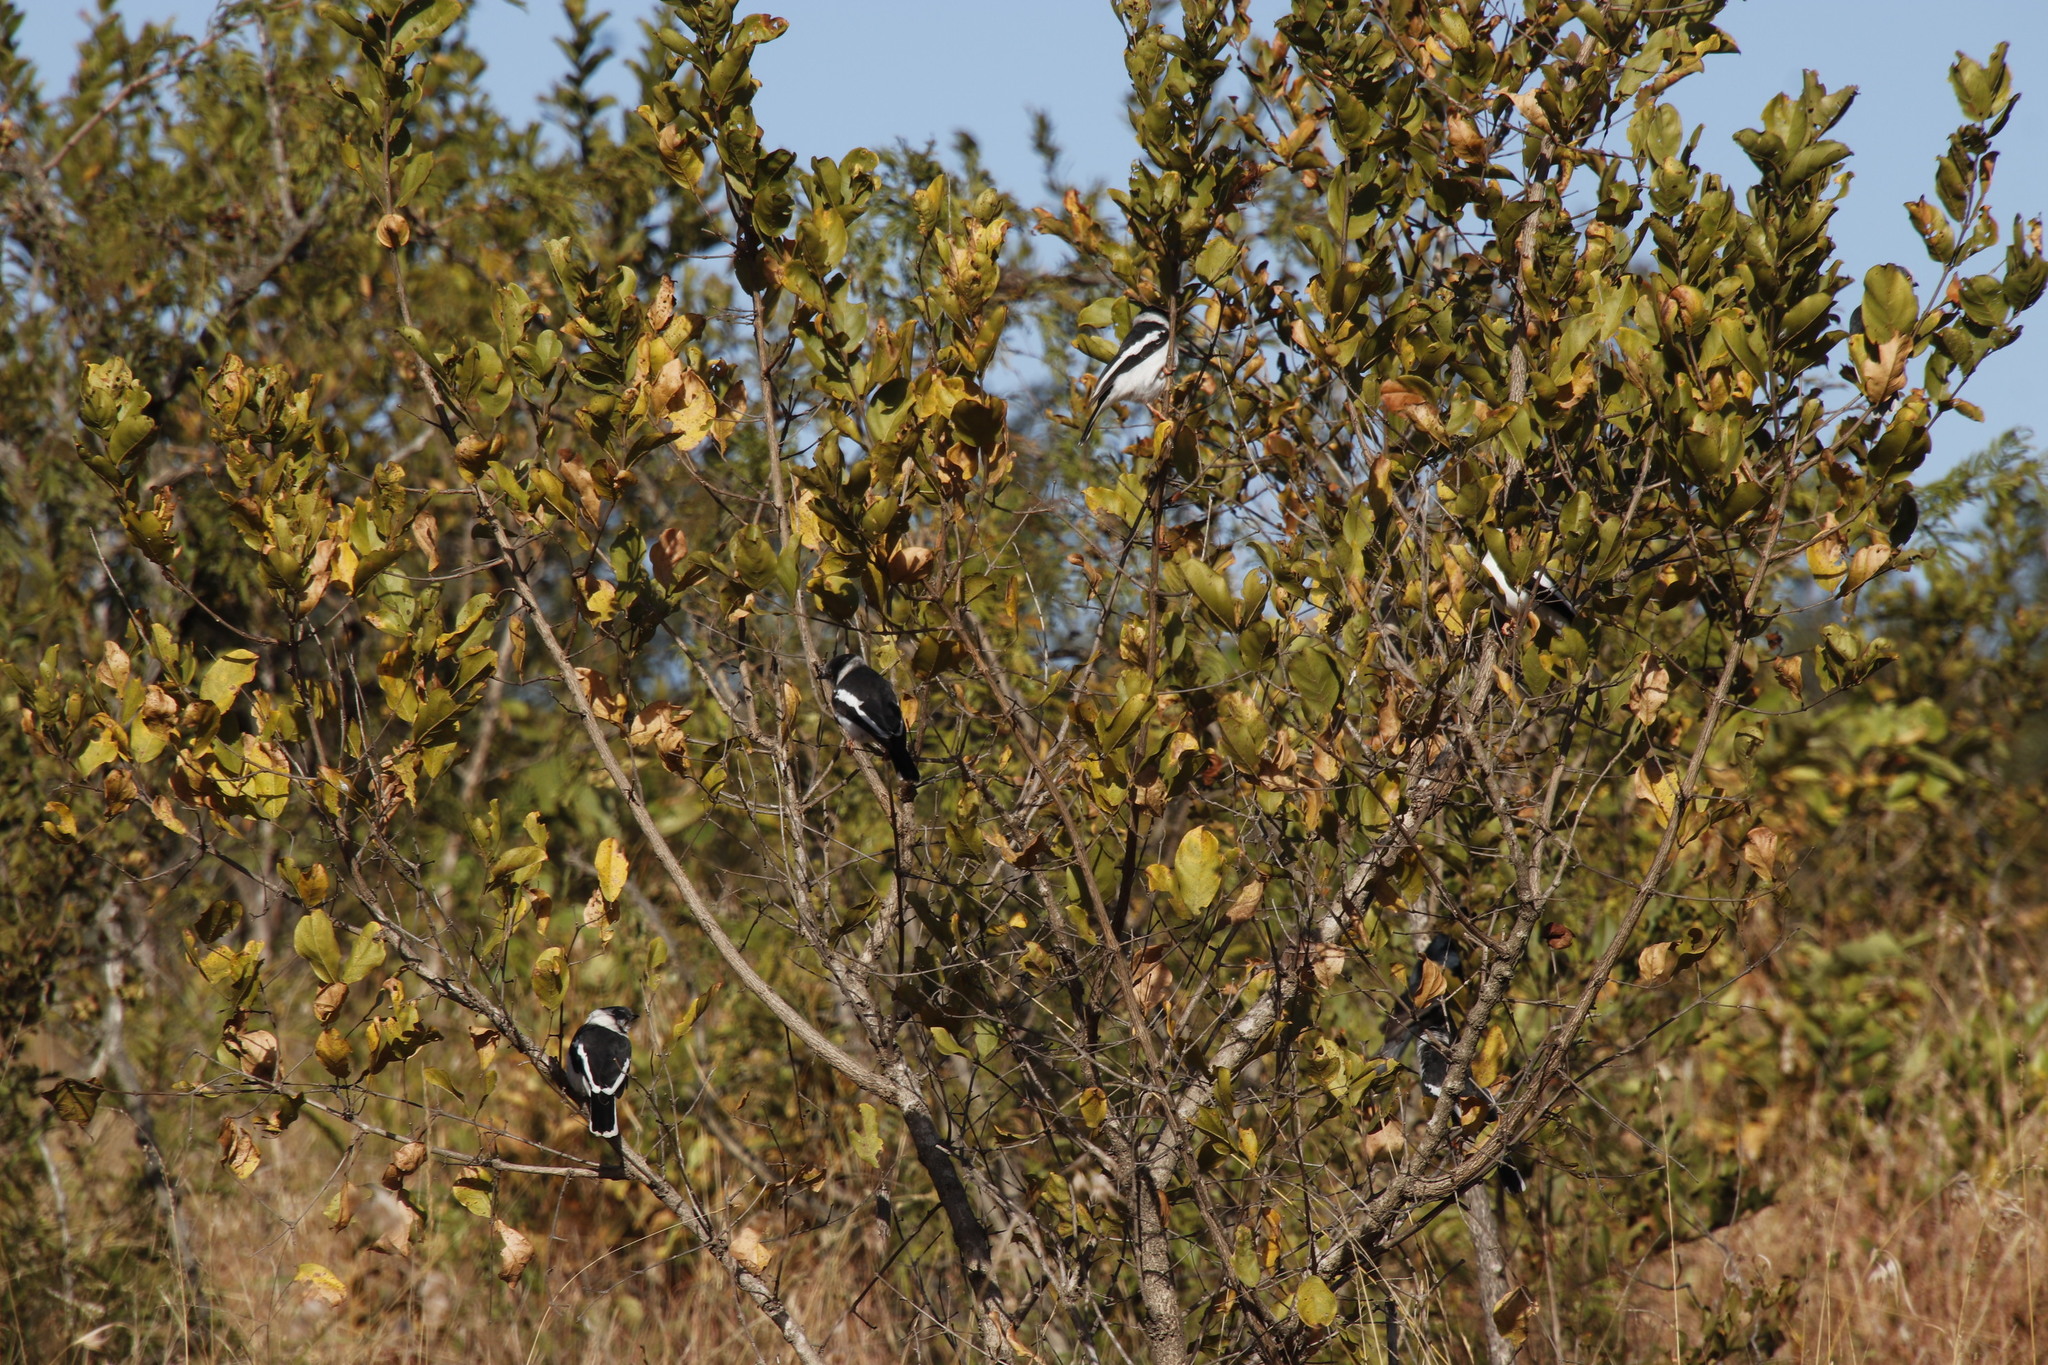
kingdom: Plantae
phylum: Tracheophyta
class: Magnoliopsida
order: Myrtales
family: Combretaceae
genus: Combretum
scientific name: Combretum apiculatum
